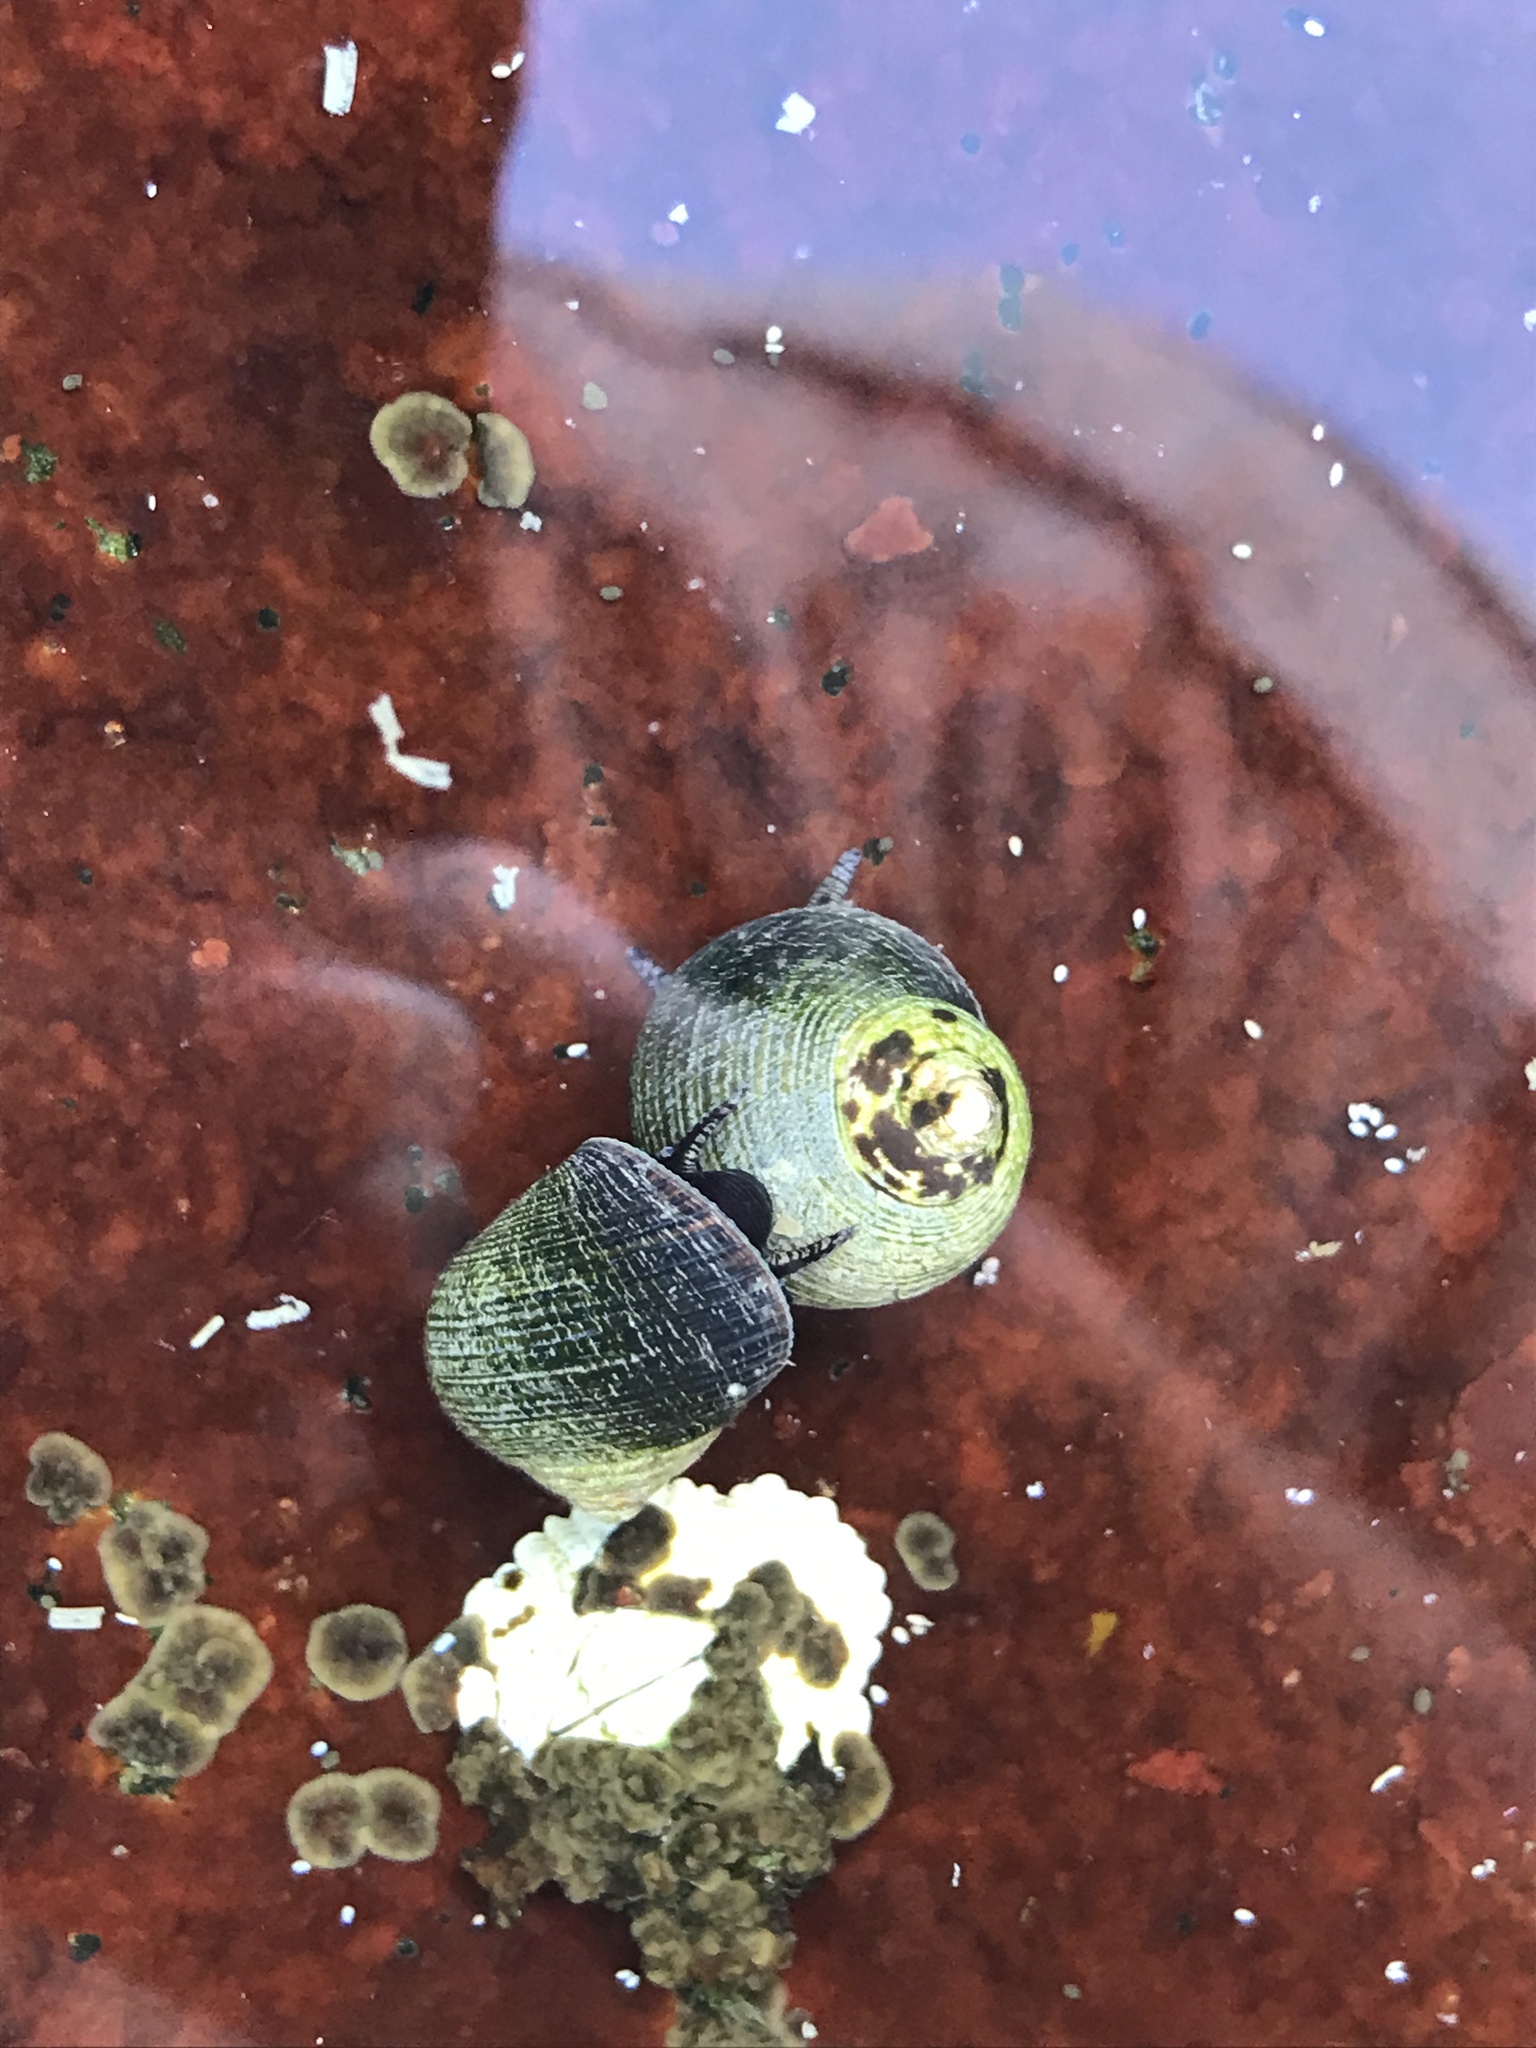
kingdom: Animalia
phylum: Mollusca
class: Gastropoda
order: Littorinimorpha
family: Littorinidae
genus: Littorina
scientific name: Littorina littorea
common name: Common periwinkle
